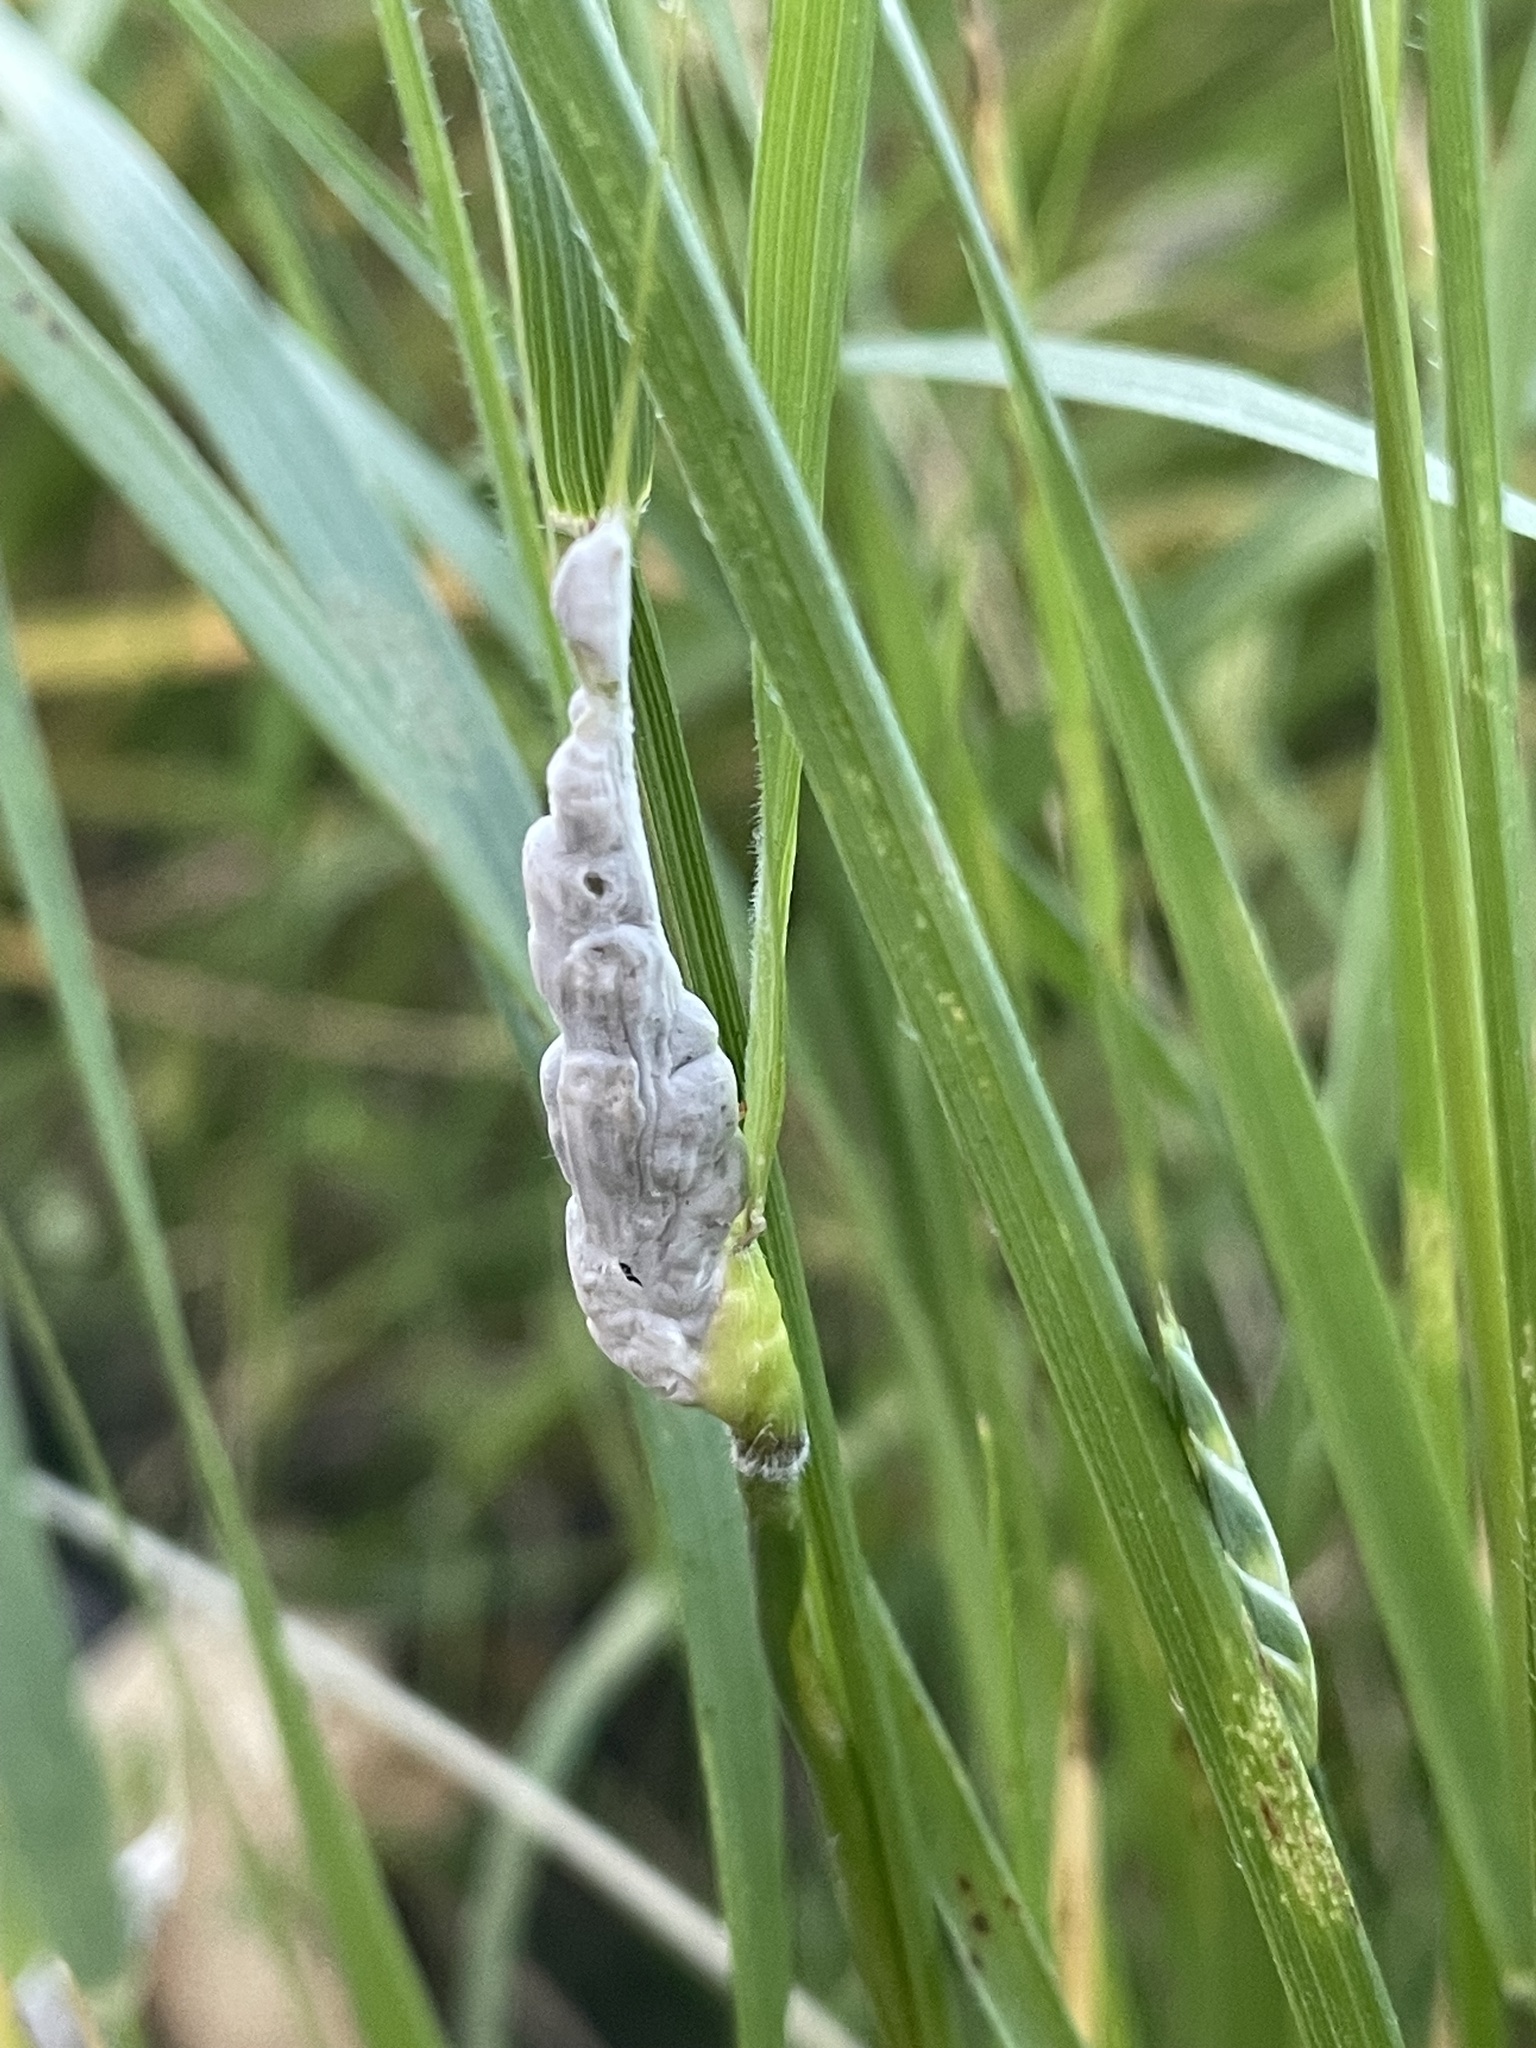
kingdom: Fungi
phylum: Ascomycota
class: Sordariomycetes
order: Hypocreales
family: Clavicipitaceae
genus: Atkinsonella
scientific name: Atkinsonella texensis
